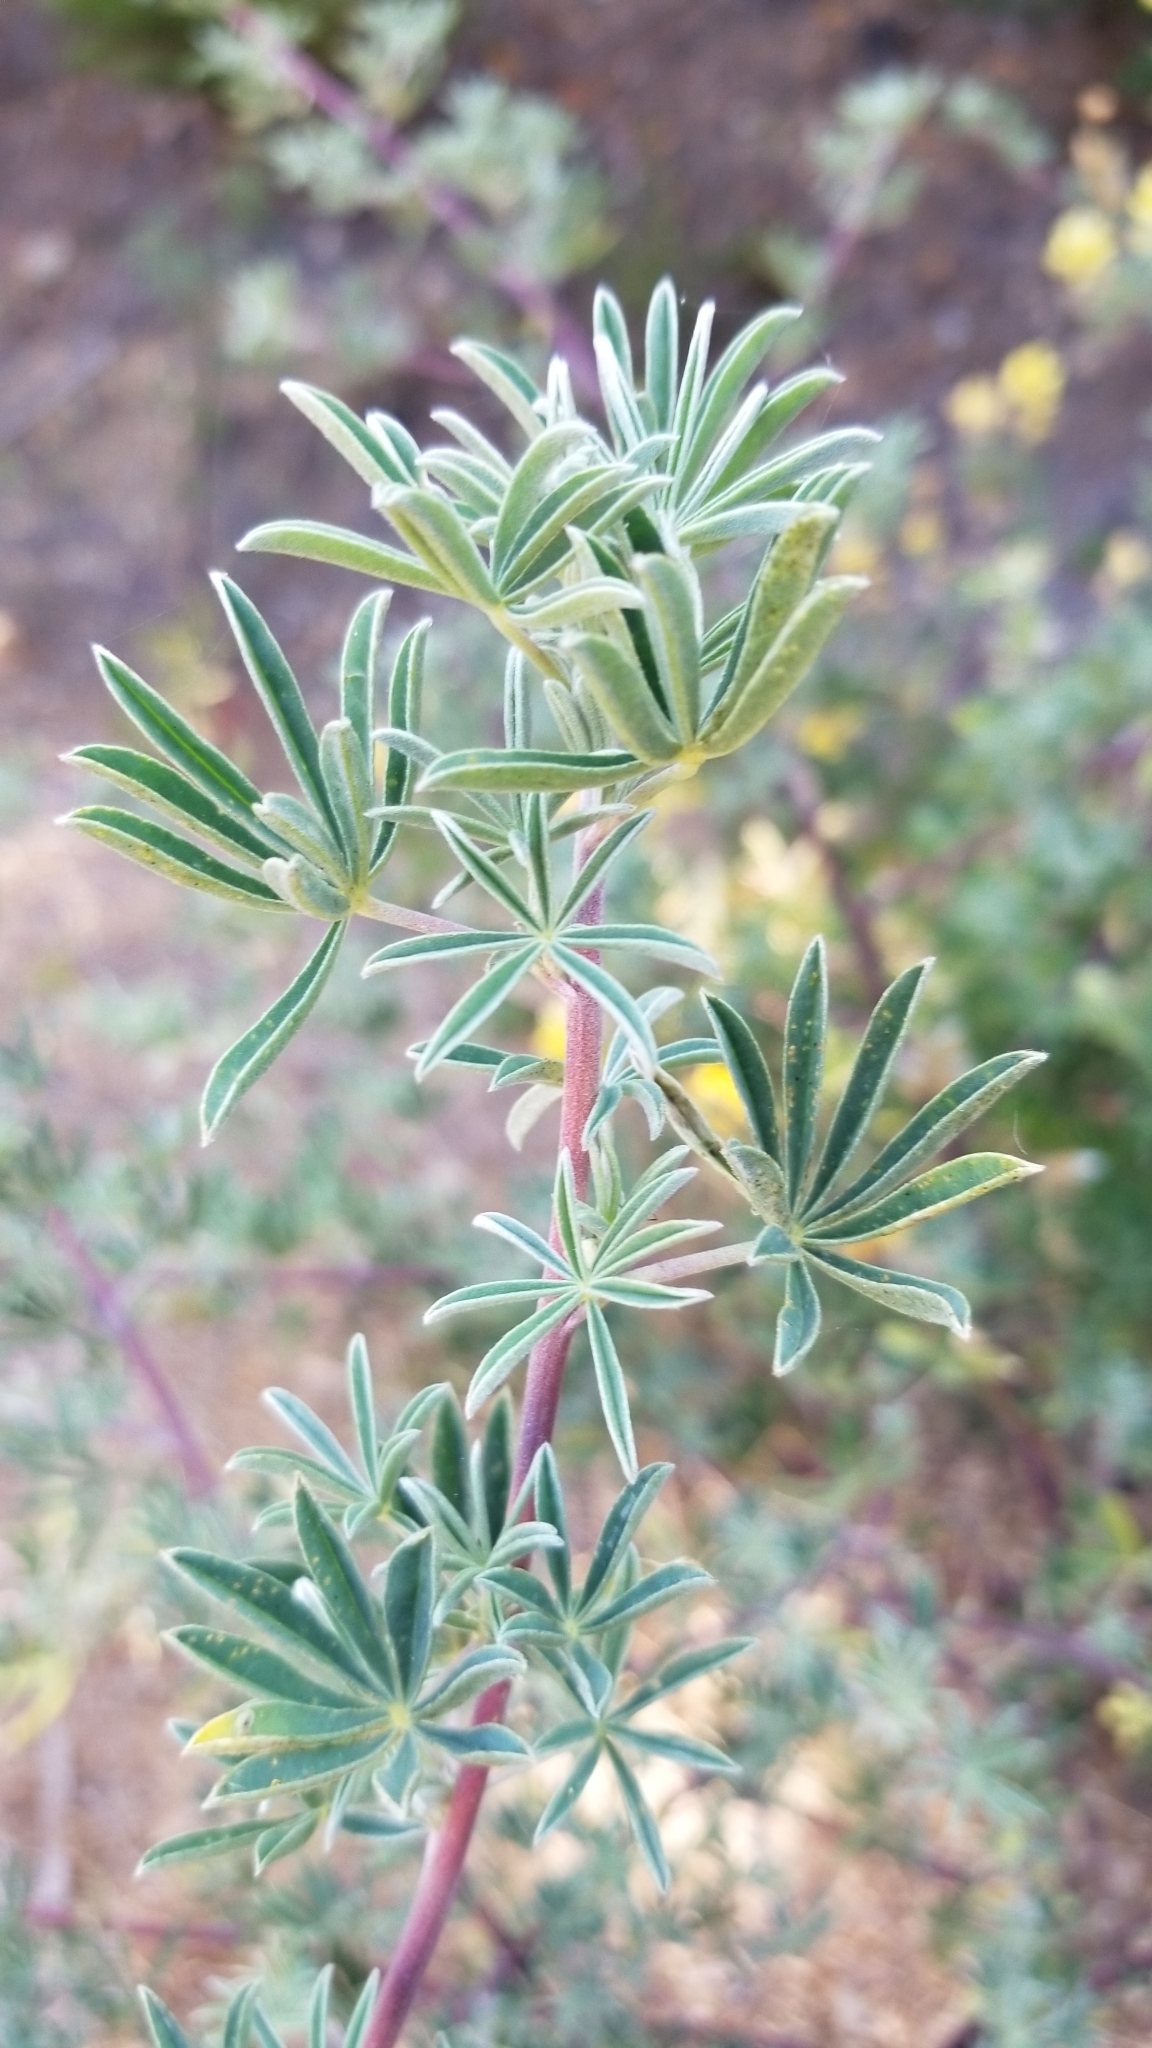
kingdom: Plantae
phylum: Tracheophyta
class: Magnoliopsida
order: Fabales
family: Fabaceae
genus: Lupinus
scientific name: Lupinus arboreus
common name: Yellow bush lupine
